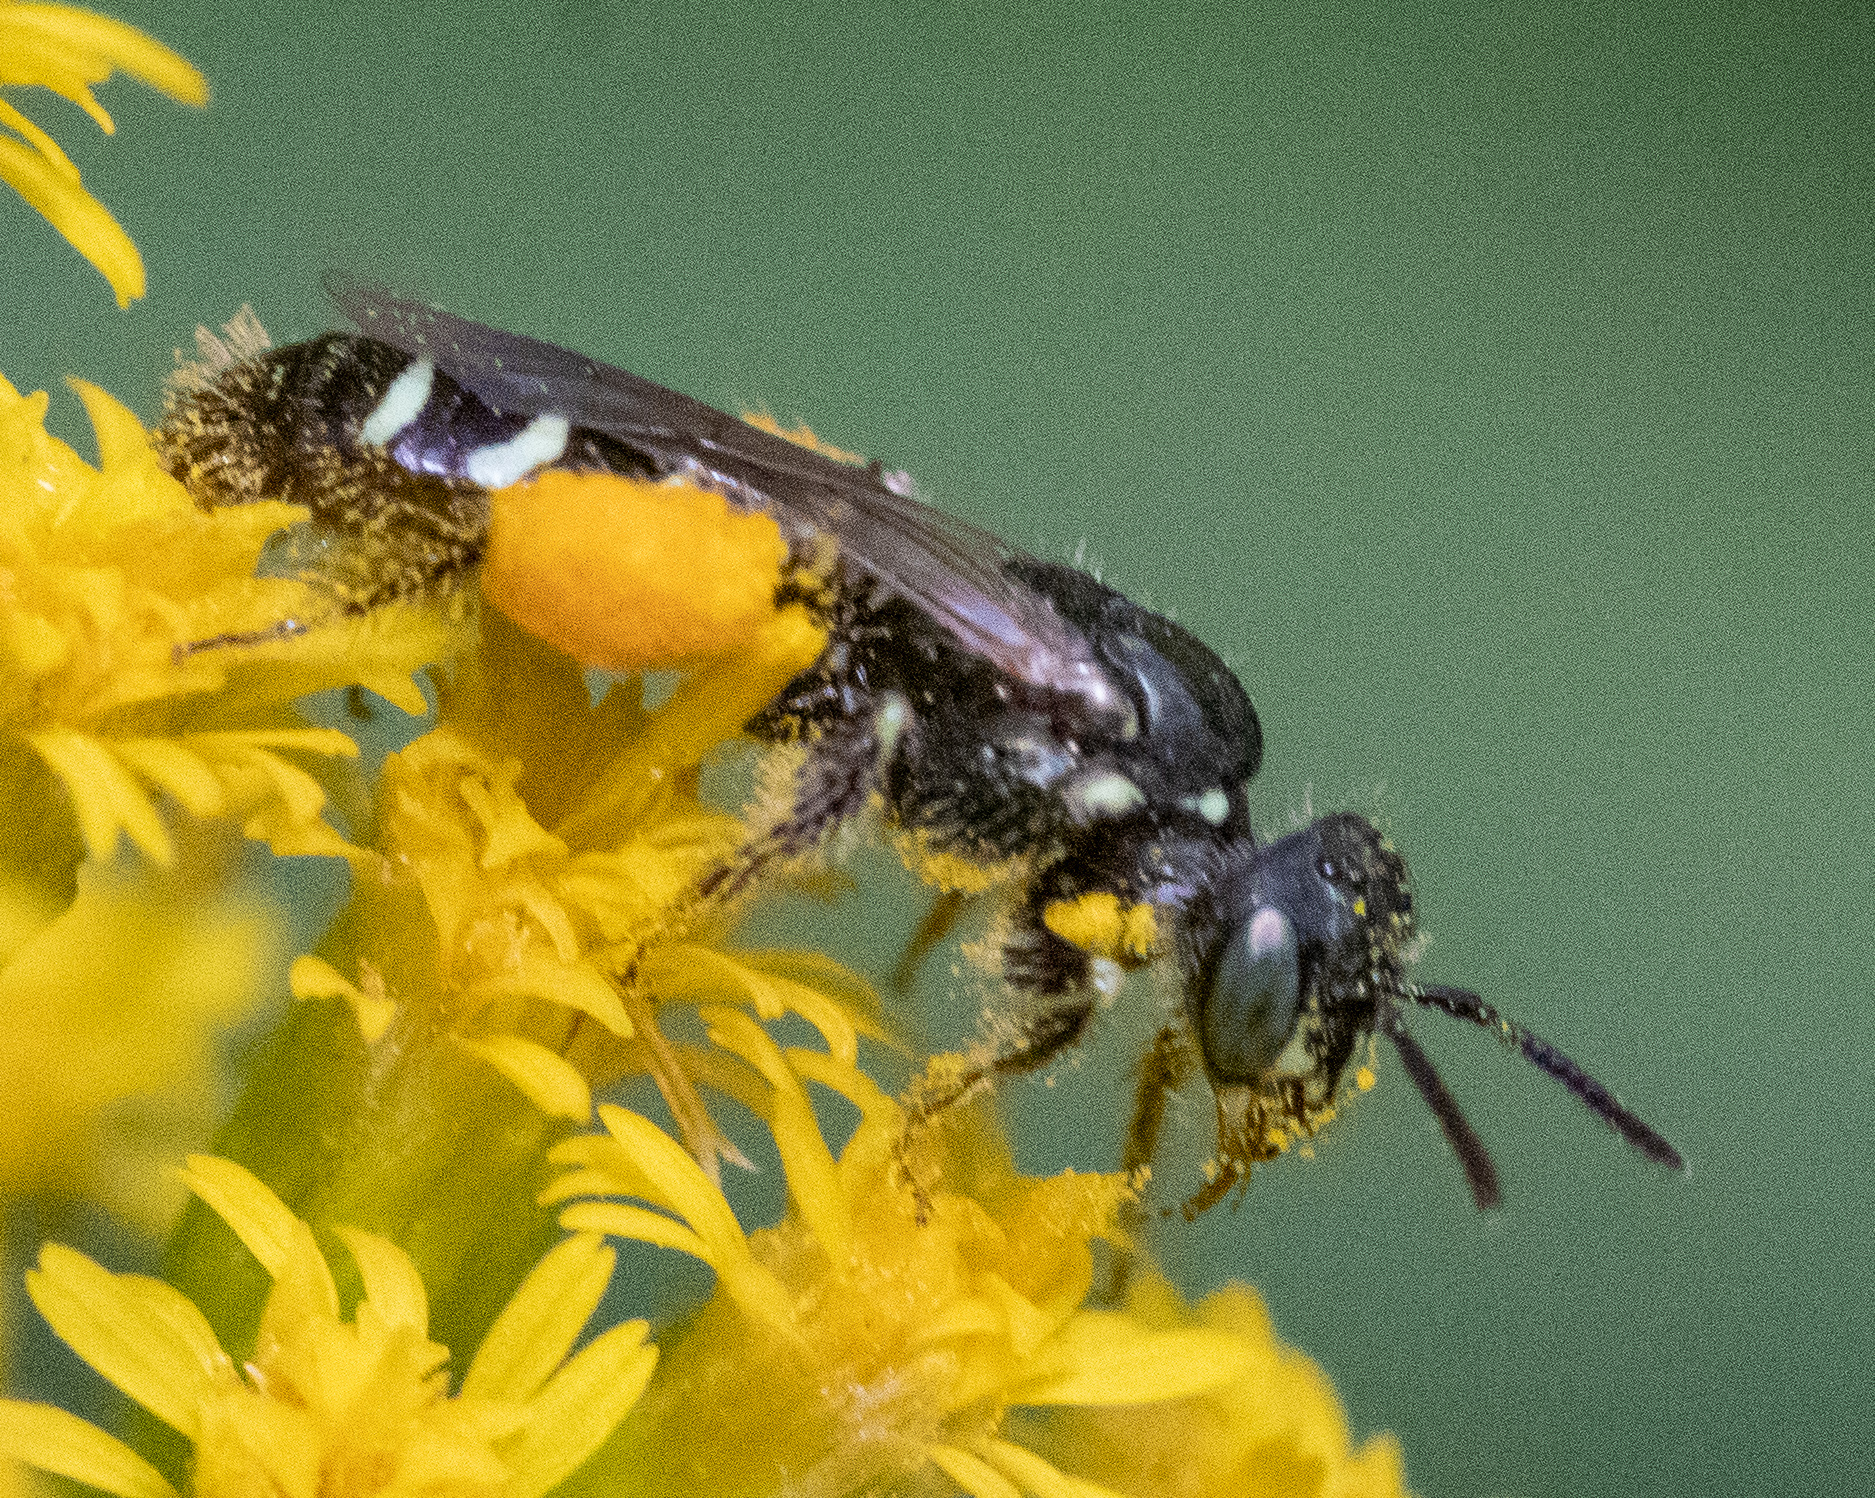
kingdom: Animalia
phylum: Arthropoda
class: Insecta
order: Hymenoptera
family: Andrenidae
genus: Perdita
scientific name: Perdita octomaculata
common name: Eight-spotted miner bee
